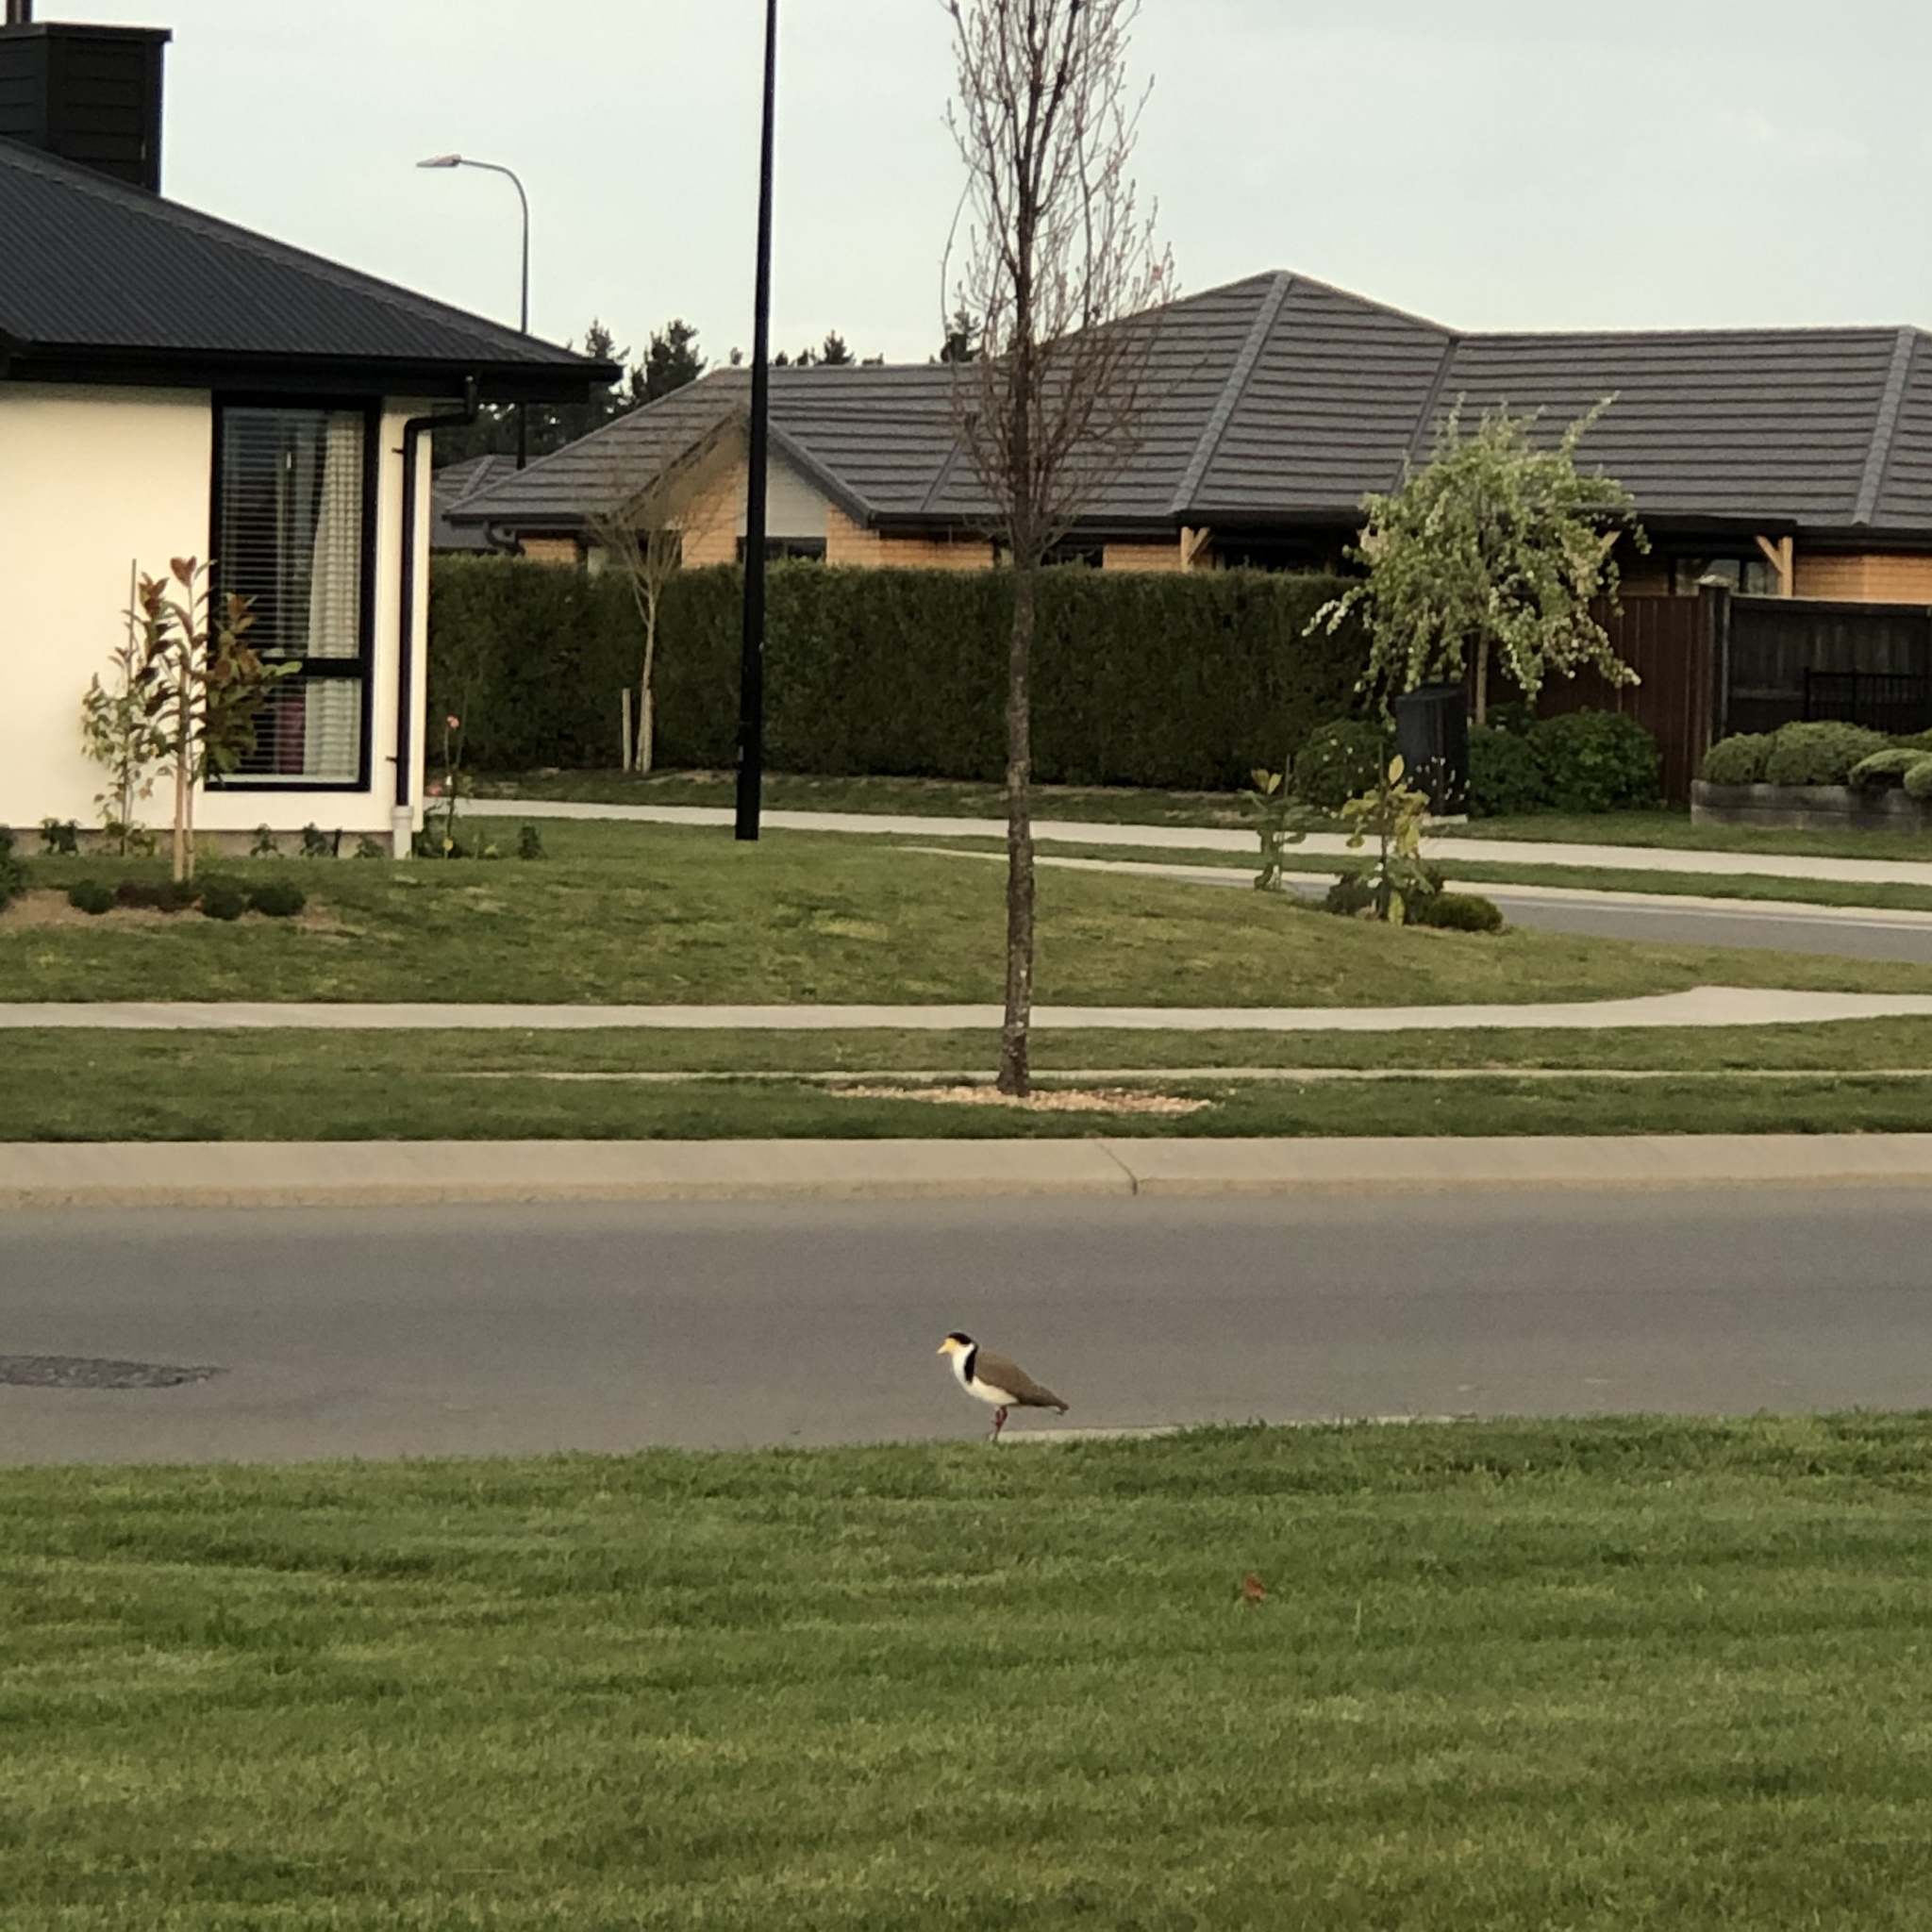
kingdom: Animalia
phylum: Chordata
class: Aves
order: Charadriiformes
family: Charadriidae
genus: Vanellus
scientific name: Vanellus miles
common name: Masked lapwing
